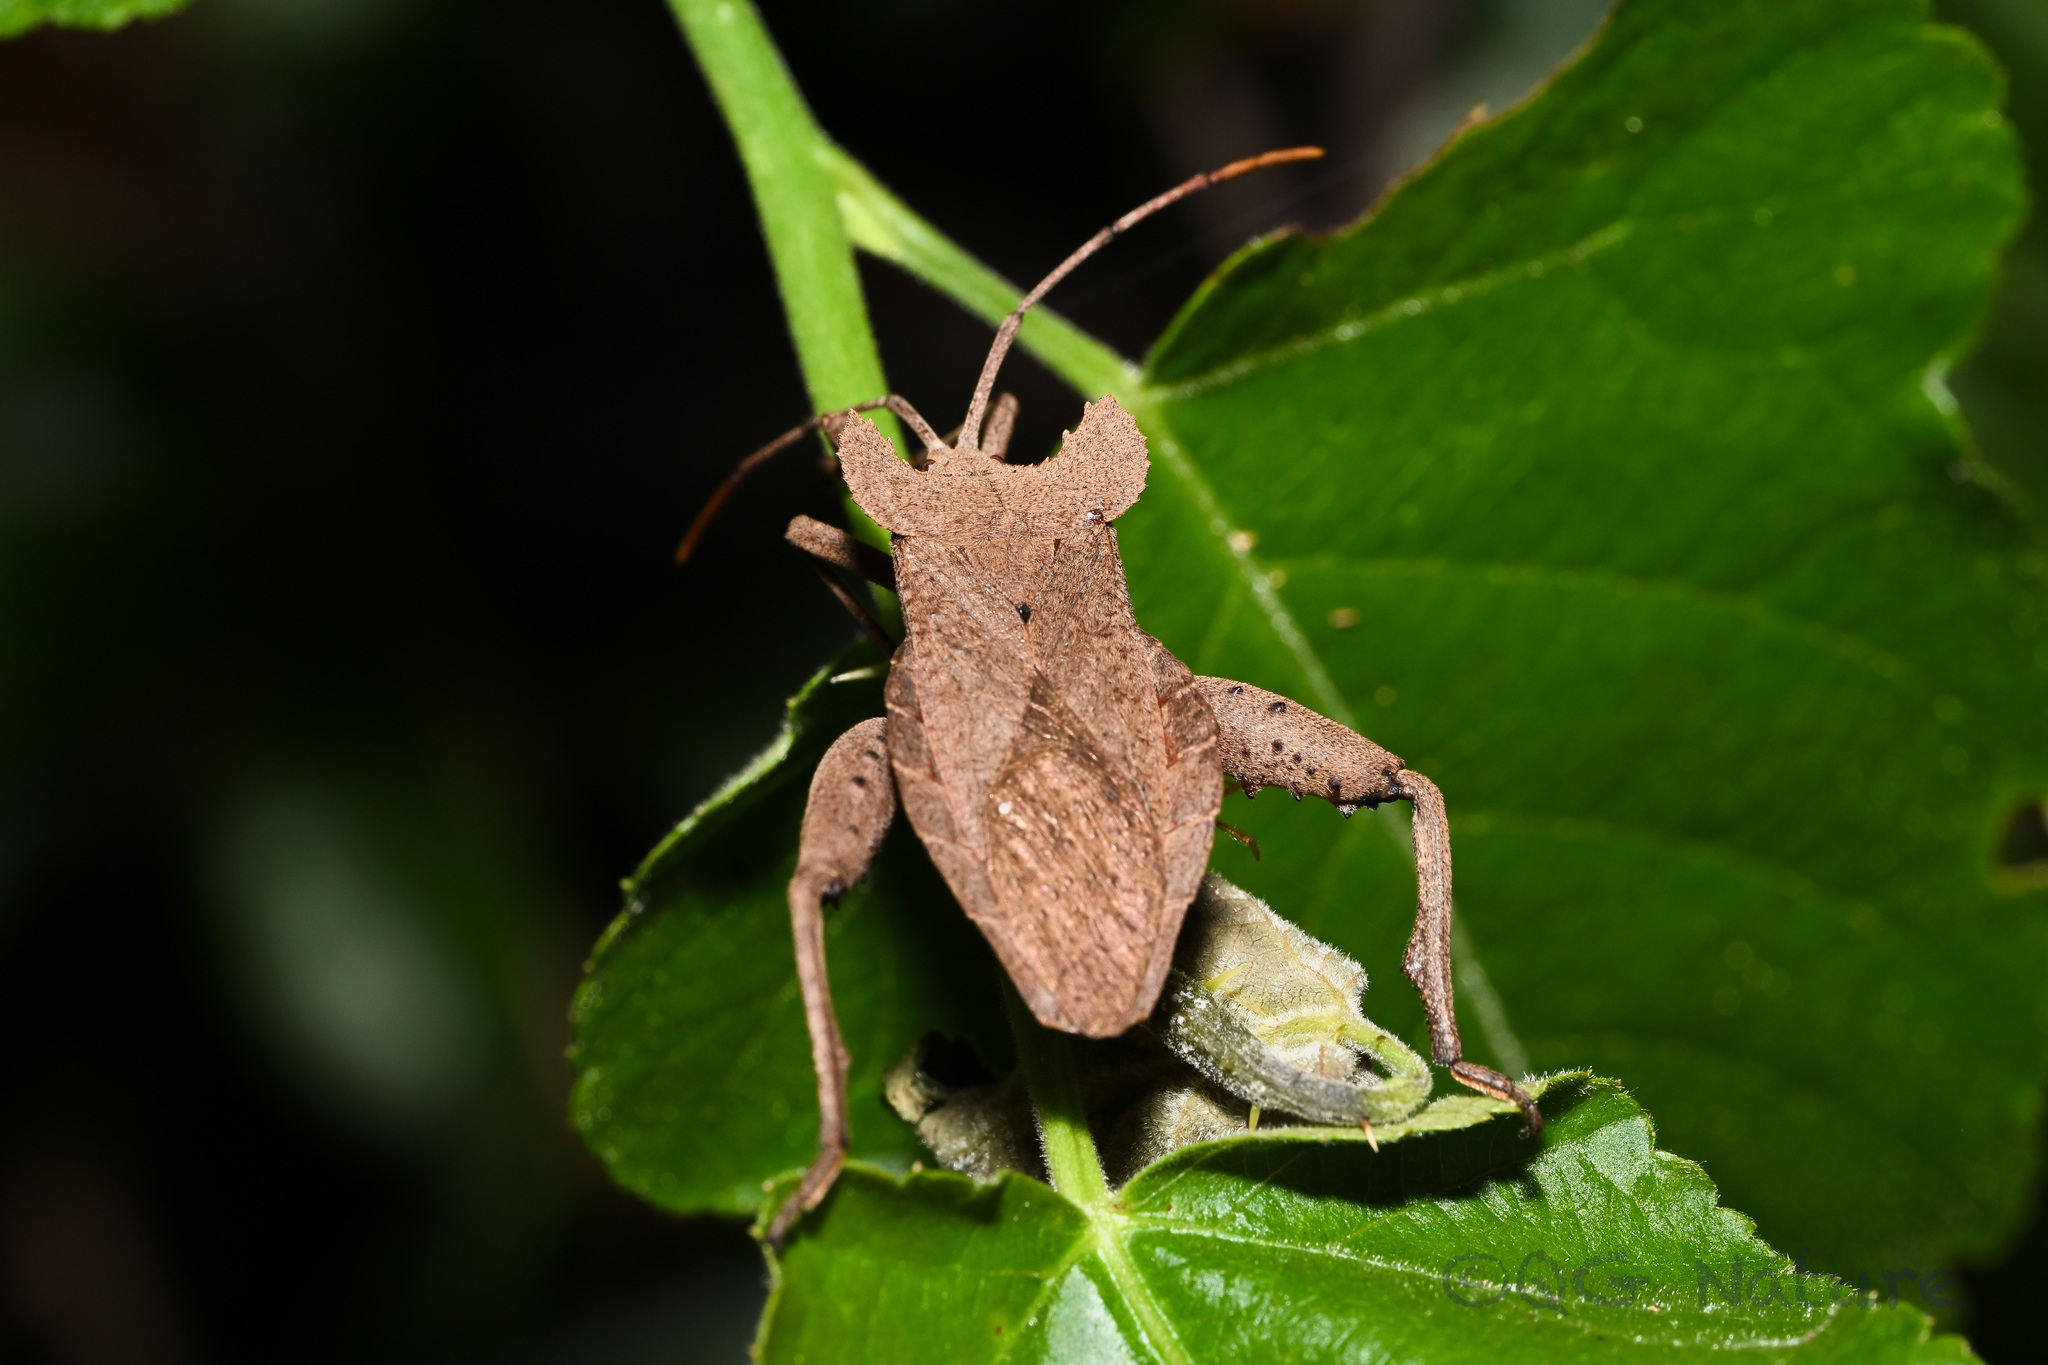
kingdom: Animalia
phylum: Arthropoda
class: Insecta
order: Hemiptera
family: Coreidae
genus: Molipteryx
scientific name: Molipteryx lunata
